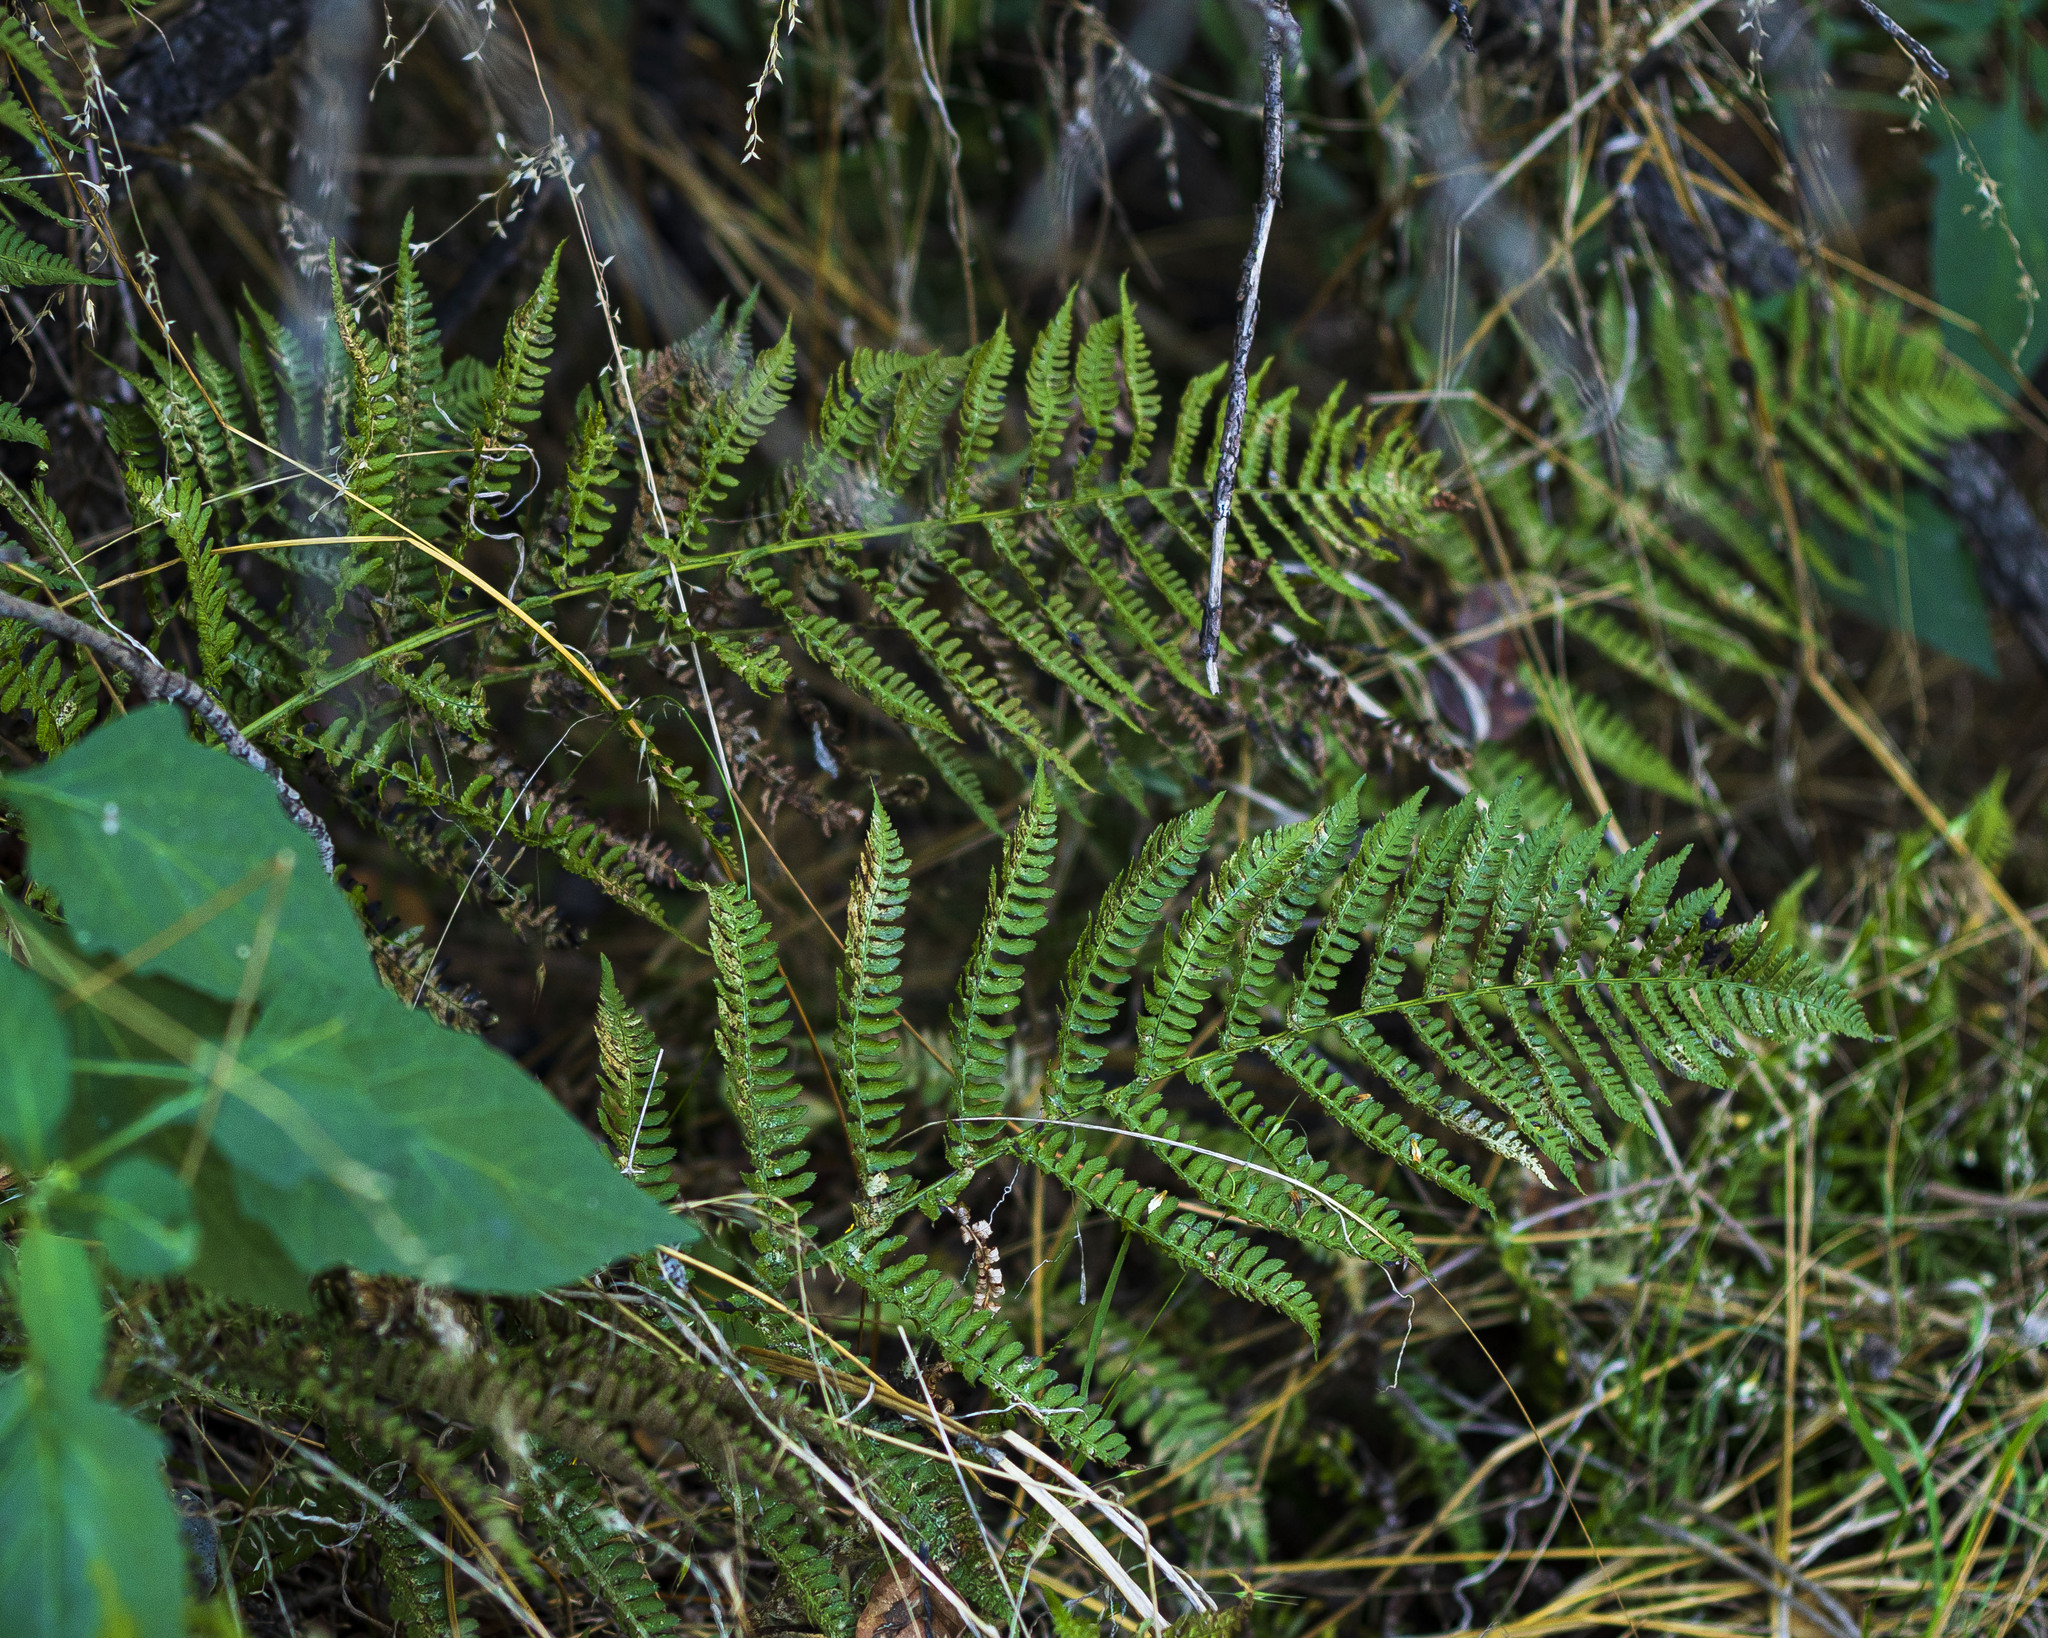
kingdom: Plantae
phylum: Tracheophyta
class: Polypodiopsida
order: Polypodiales
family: Dryopteridaceae
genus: Dryopteris
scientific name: Dryopteris arguta
